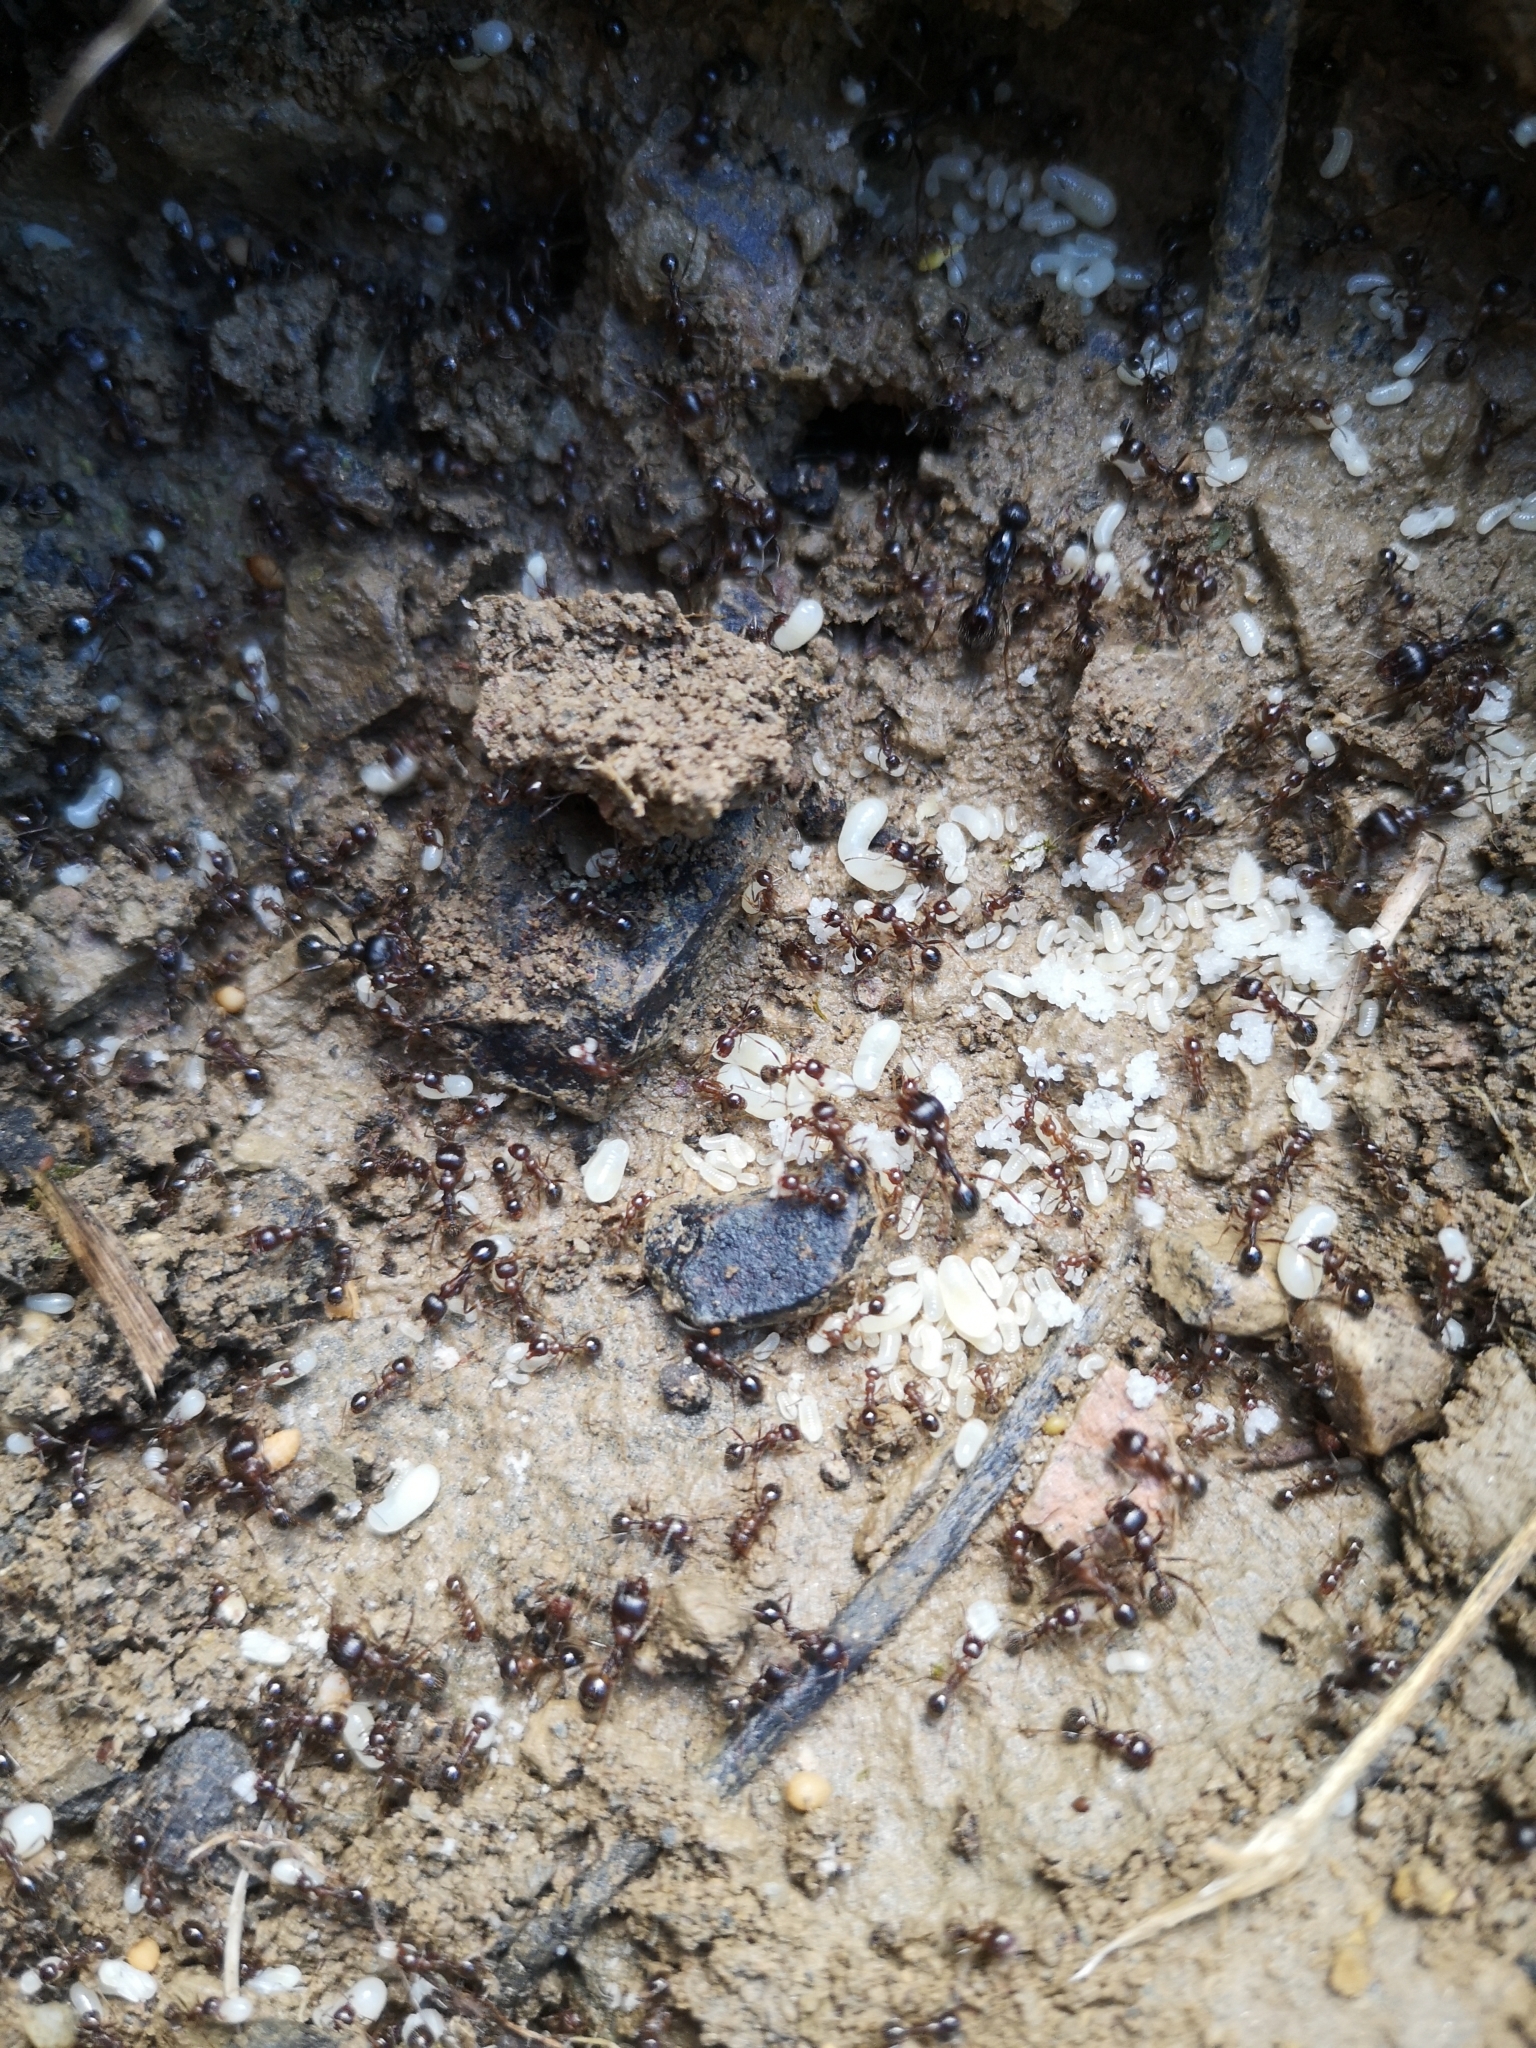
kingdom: Animalia
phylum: Arthropoda
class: Insecta
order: Hymenoptera
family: Formicidae
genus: Messor
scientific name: Messor ibericus
